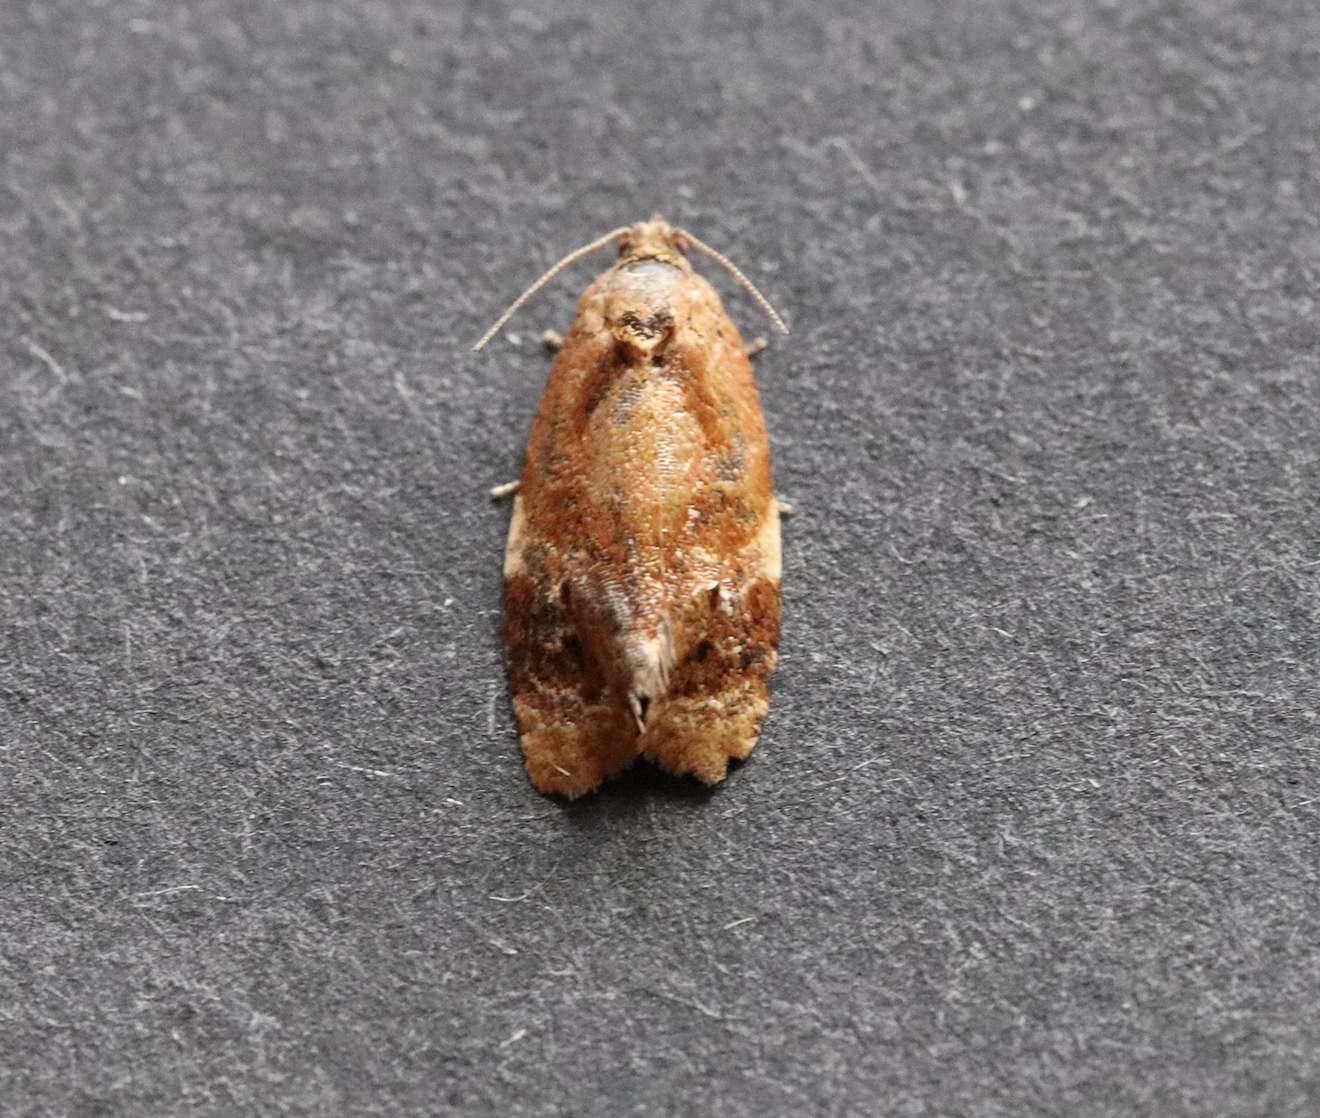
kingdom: Animalia
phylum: Arthropoda
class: Insecta
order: Lepidoptera
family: Tortricidae
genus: Ditula
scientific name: Ditula angustiorana
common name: Red-barred tortrix
